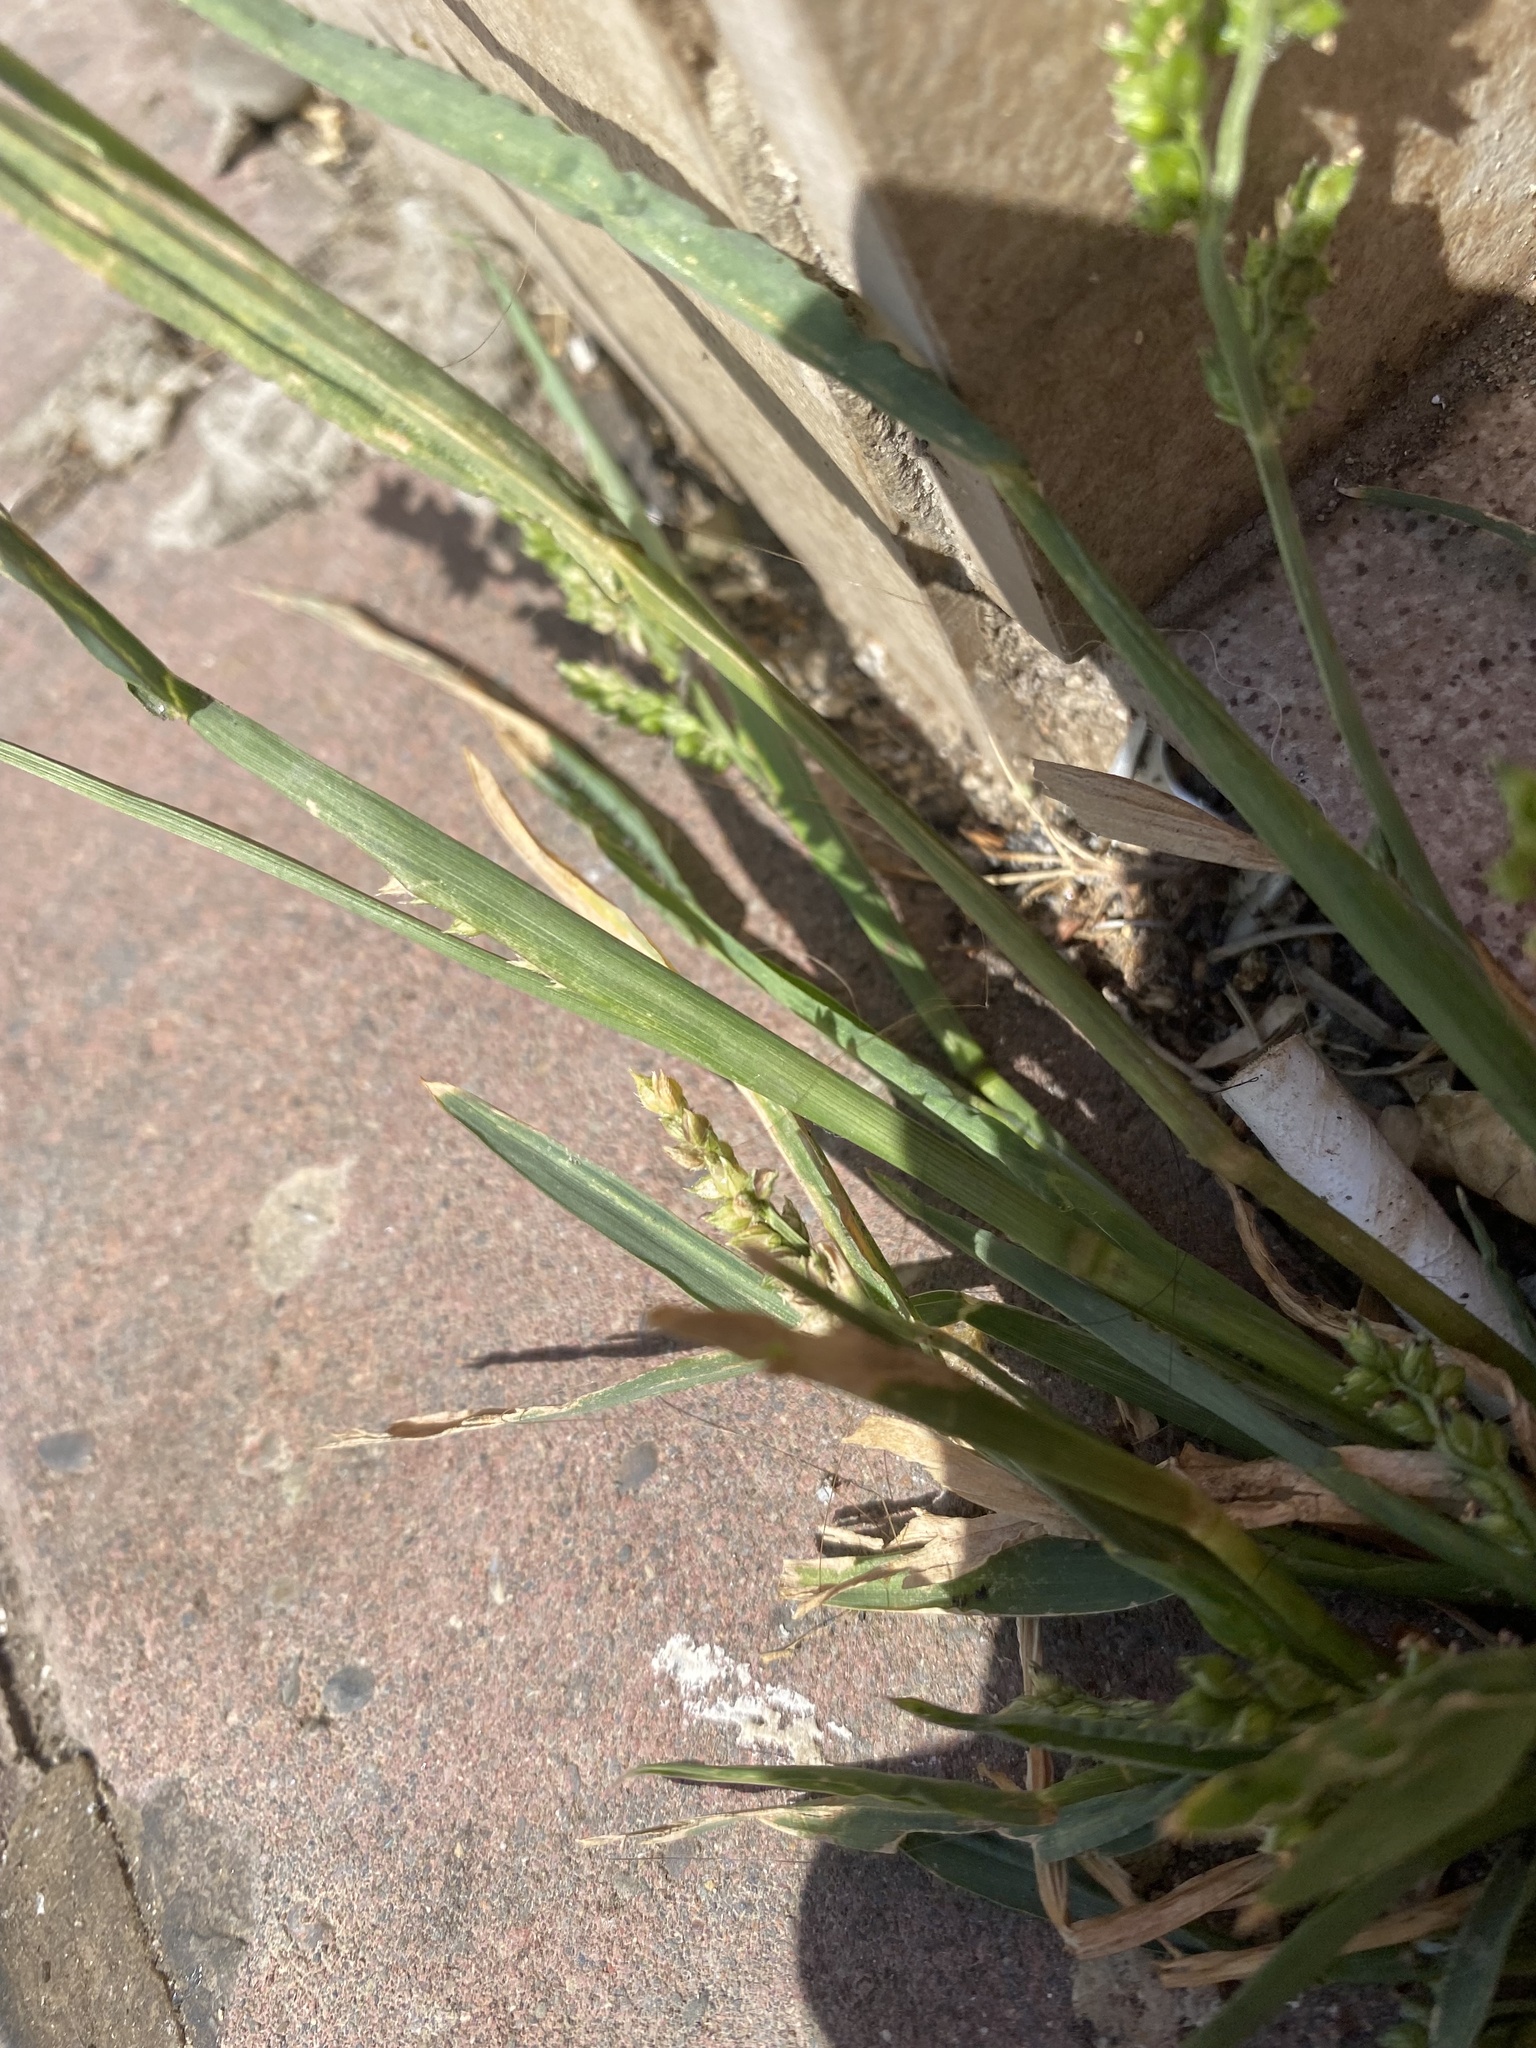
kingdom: Plantae
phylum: Tracheophyta
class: Liliopsida
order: Poales
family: Poaceae
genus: Echinochloa
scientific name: Echinochloa crus-galli
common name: Cockspur
